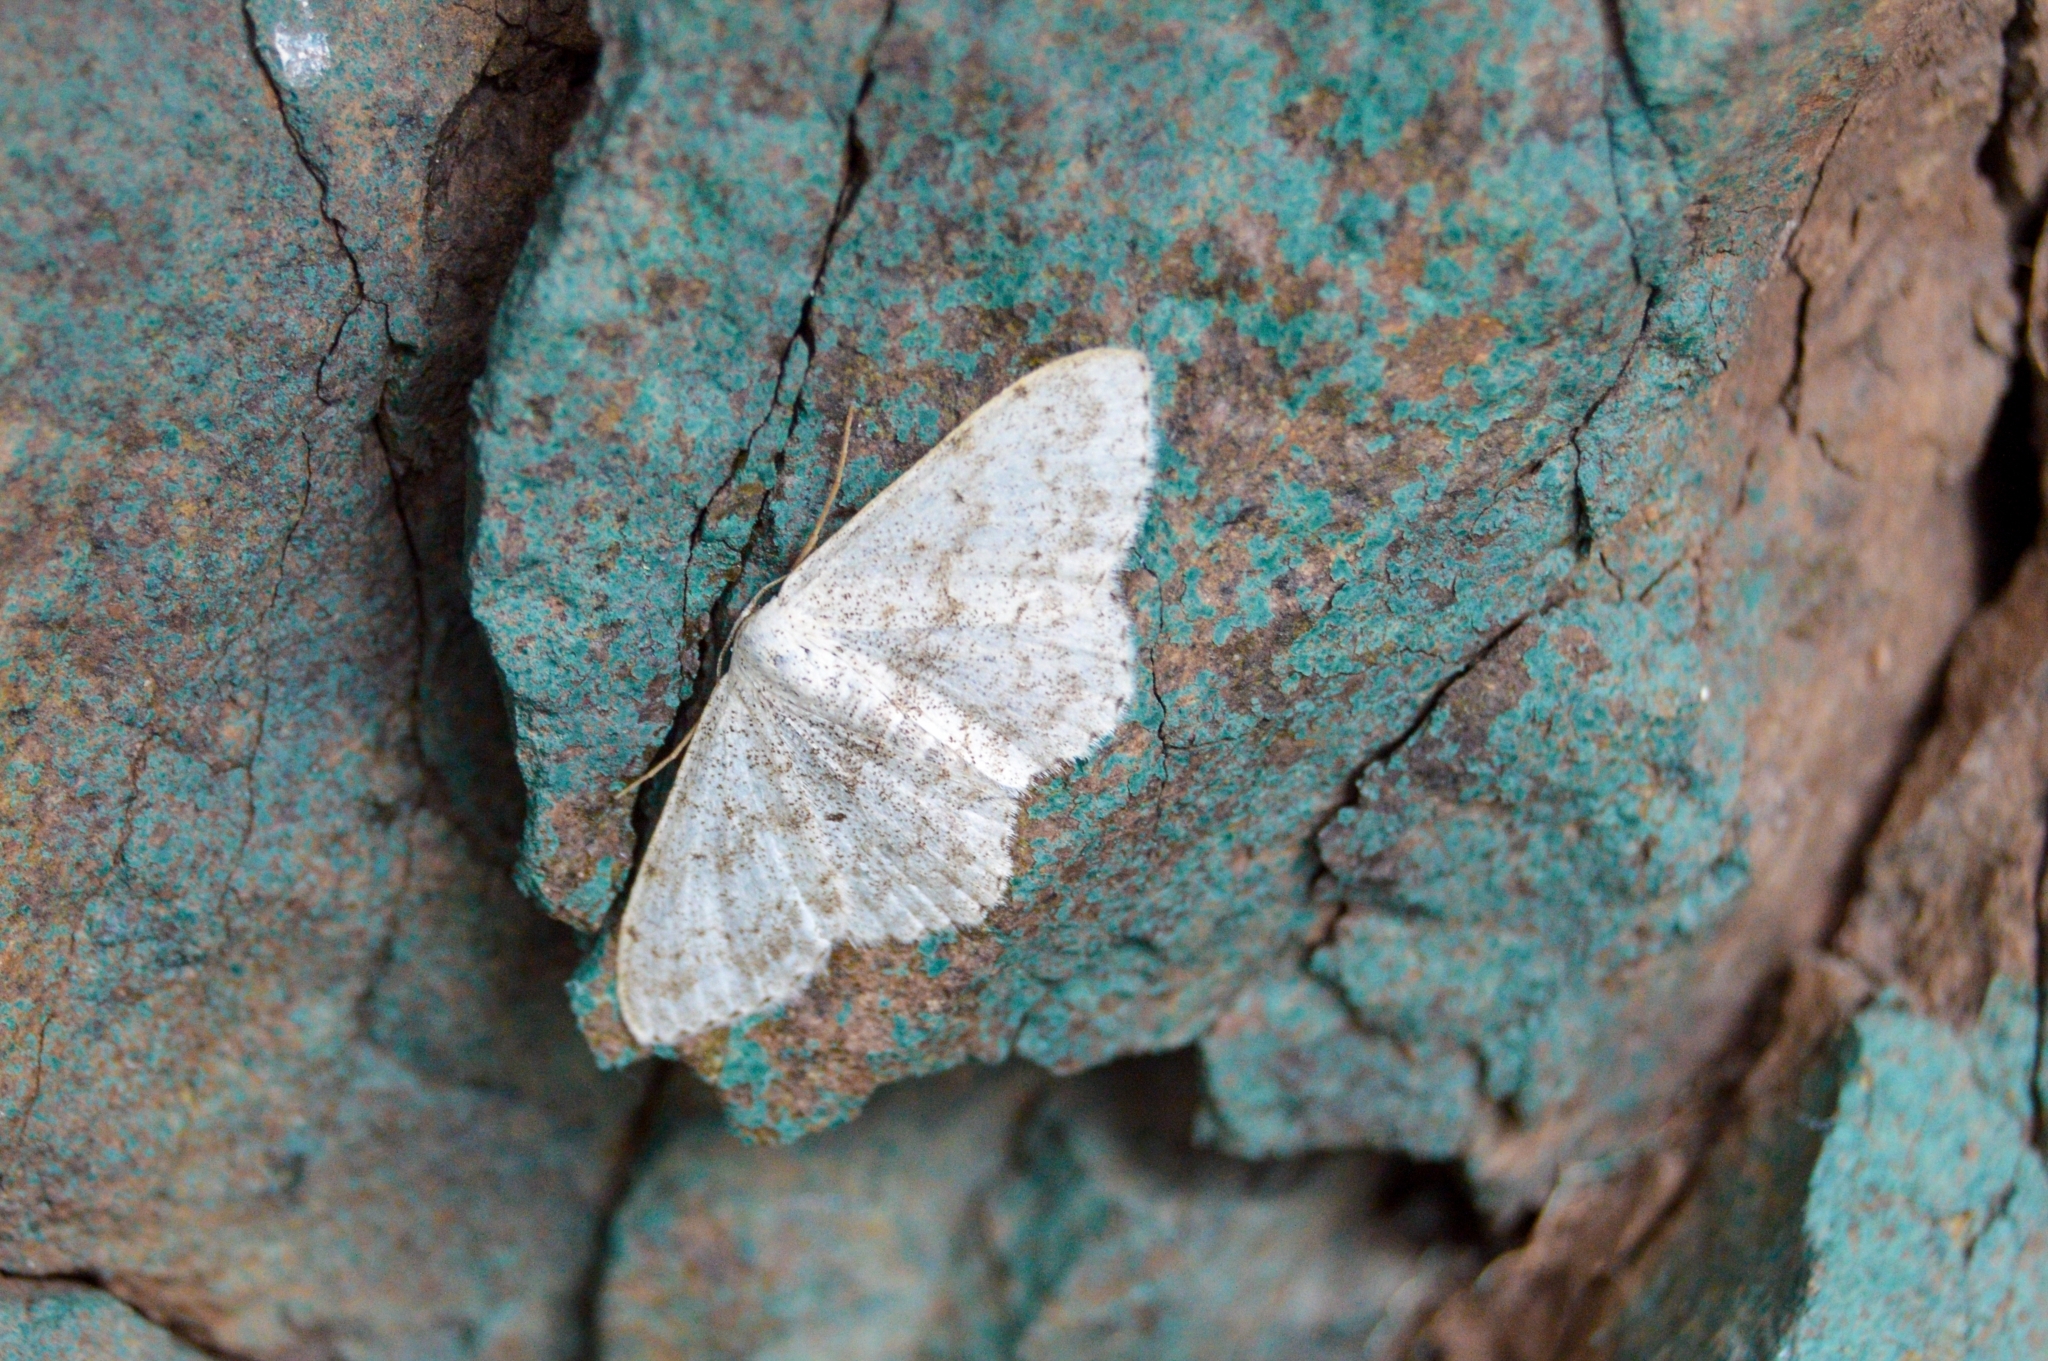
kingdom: Animalia
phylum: Arthropoda
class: Insecta
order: Lepidoptera
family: Geometridae
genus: Scopula
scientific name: Scopula marginepunctata
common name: Mullein wave
